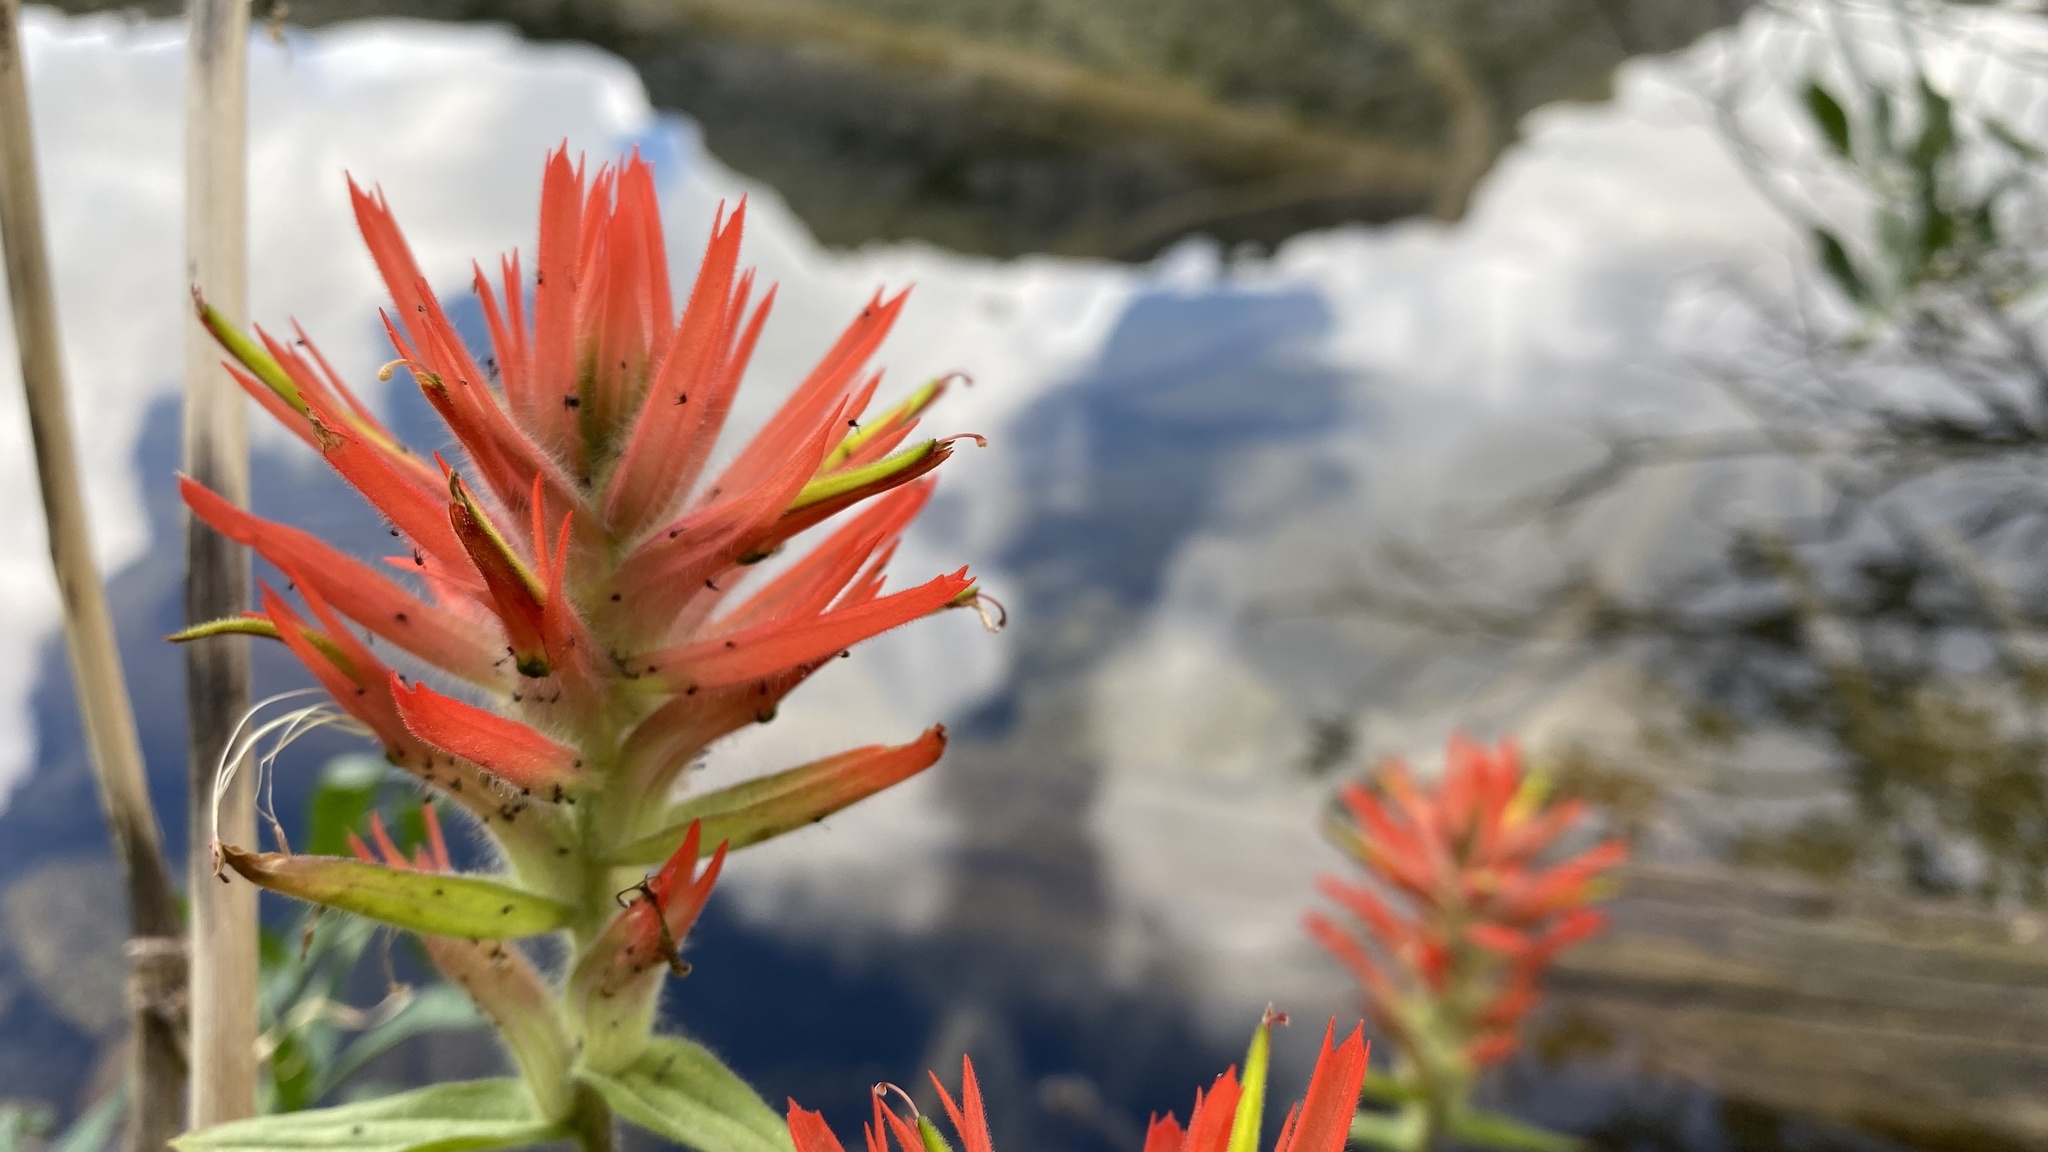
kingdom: Plantae
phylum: Tracheophyta
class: Magnoliopsida
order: Lamiales
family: Orobanchaceae
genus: Castilleja
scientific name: Castilleja miniata
